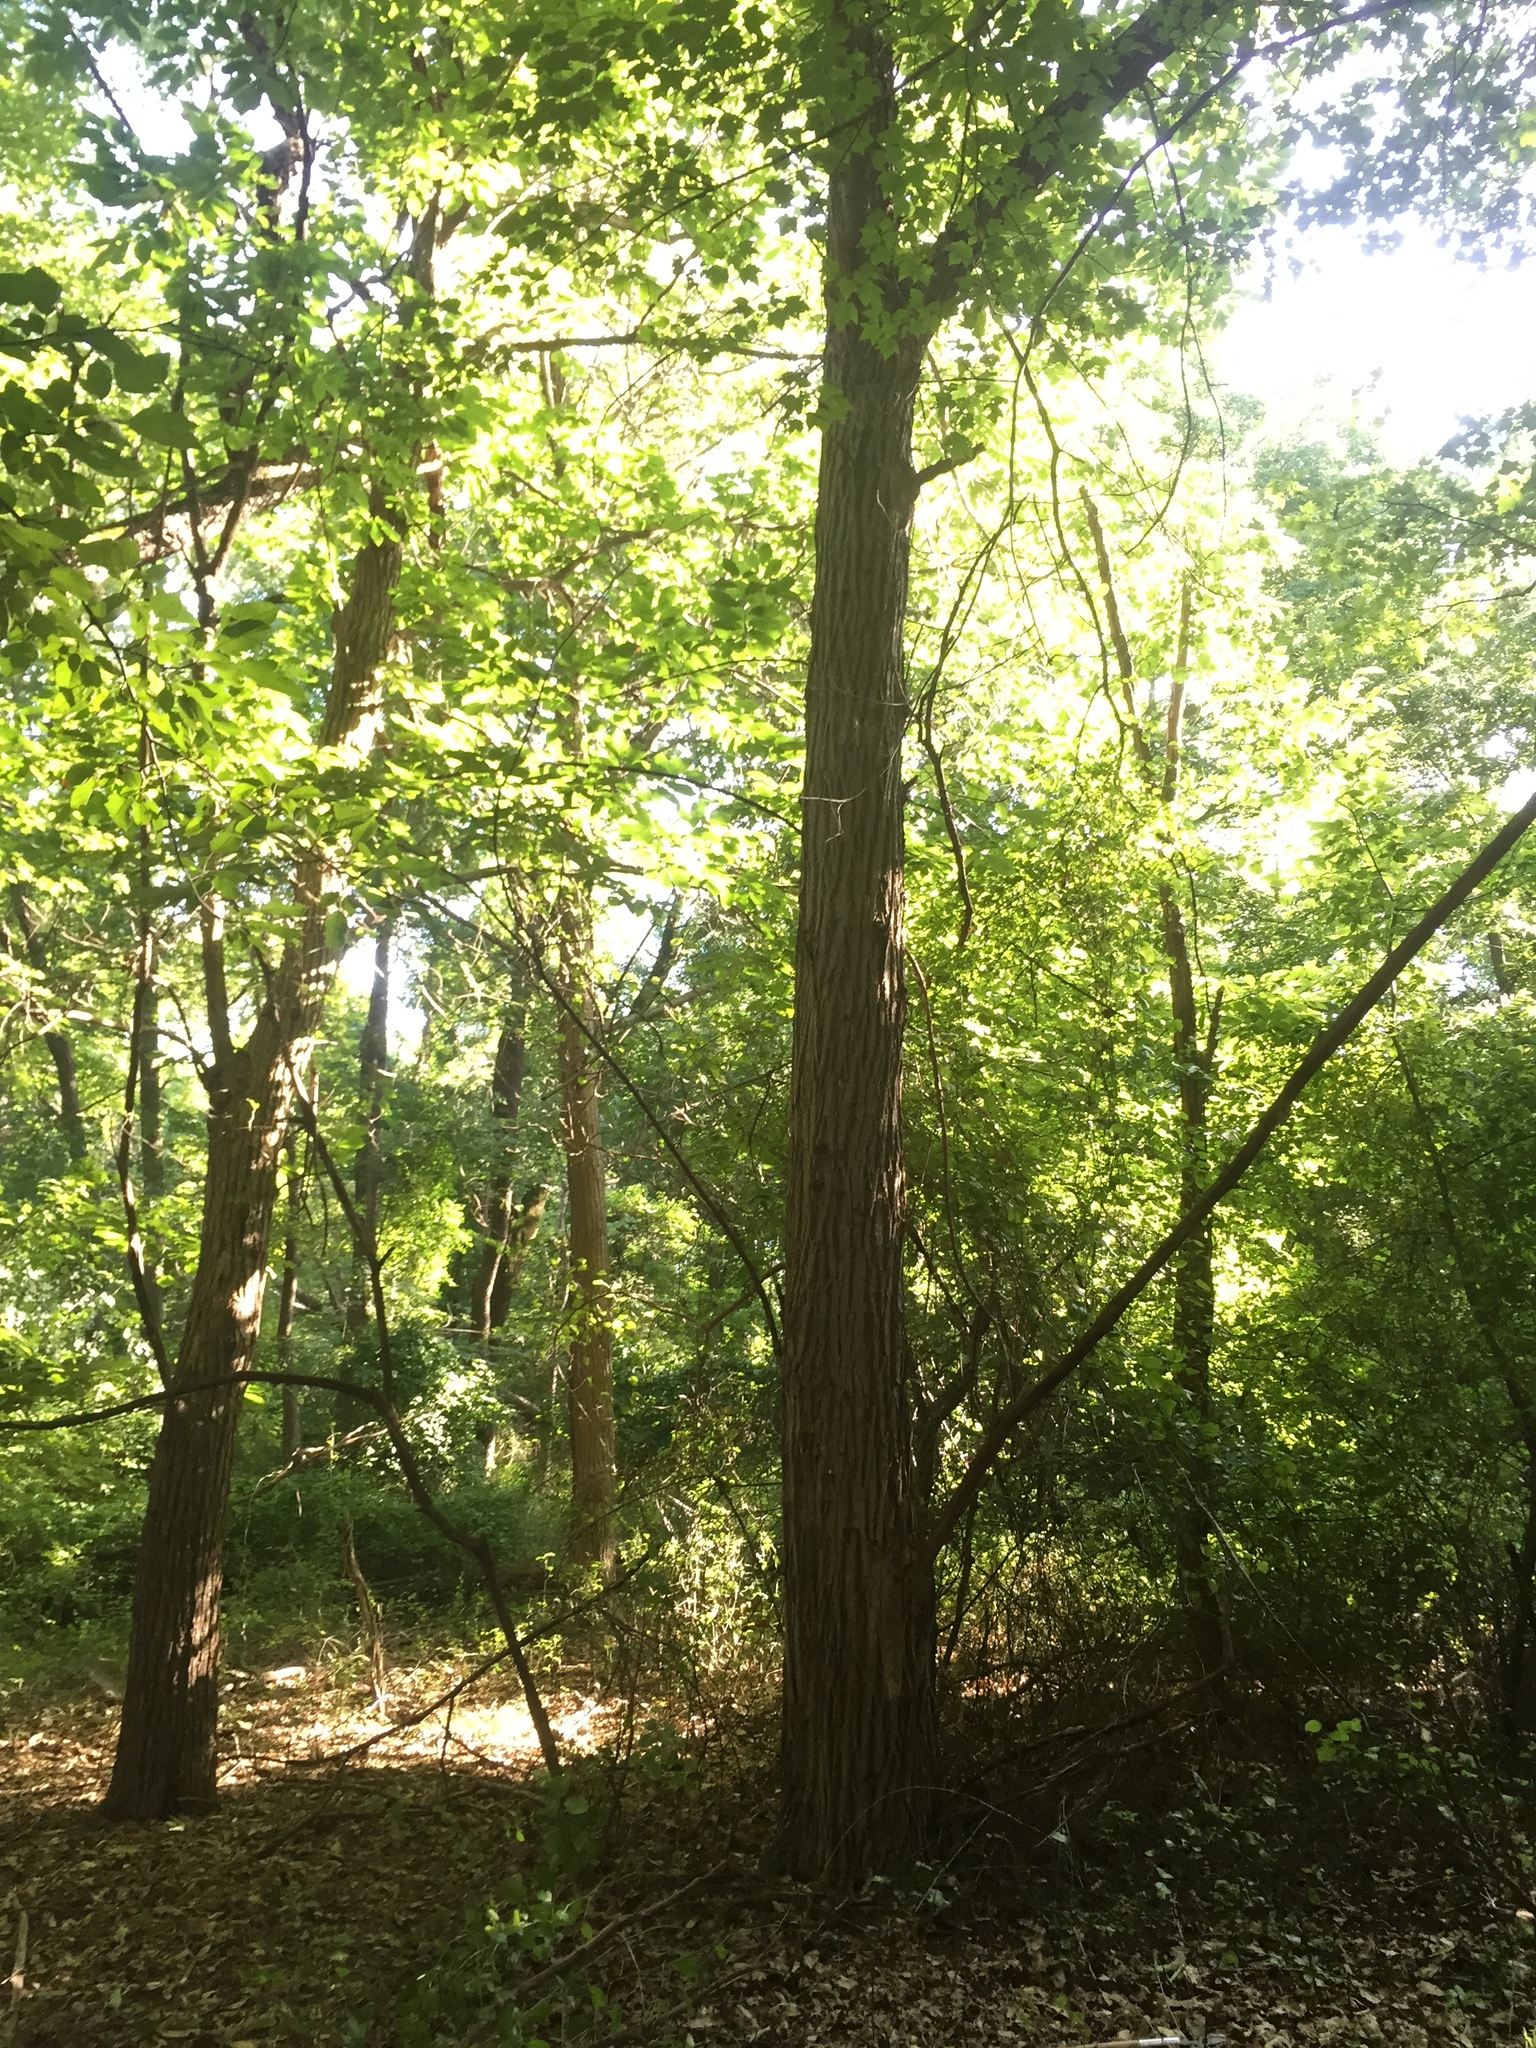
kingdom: Plantae
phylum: Tracheophyta
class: Magnoliopsida
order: Fagales
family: Fagaceae
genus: Castanea
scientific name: Castanea mollissima
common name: Chinese chestnut
